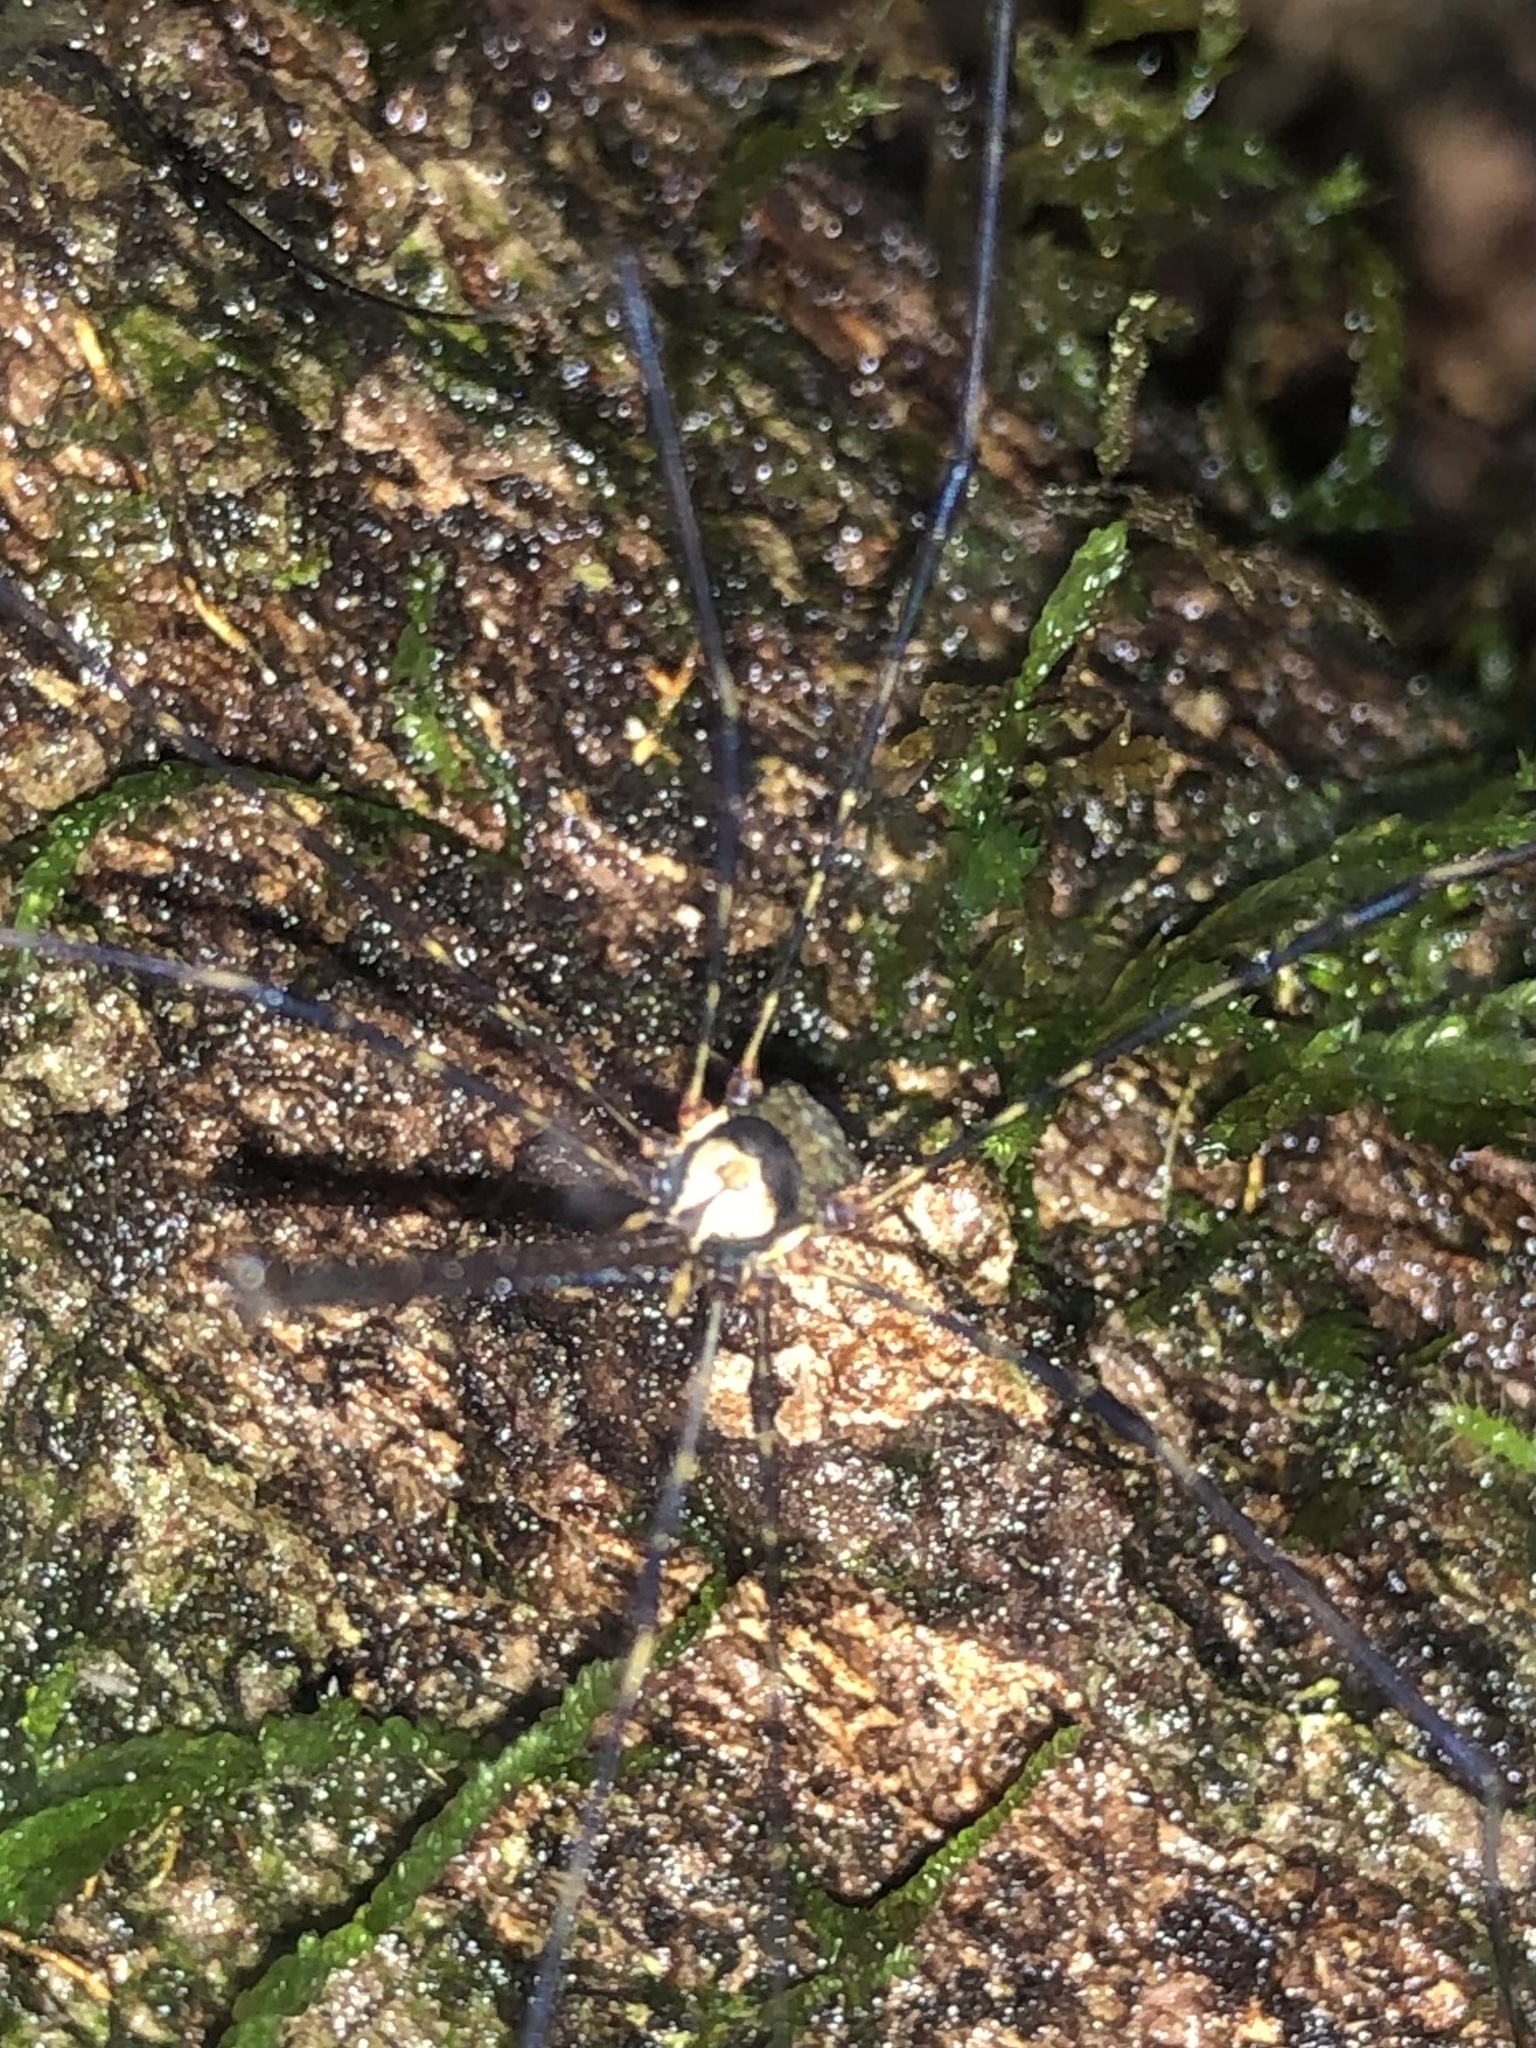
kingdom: Animalia
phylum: Arthropoda
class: Arachnida
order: Opiliones
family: Neopilionidae
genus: Neopantopsalis
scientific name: Neopantopsalis pentheter
